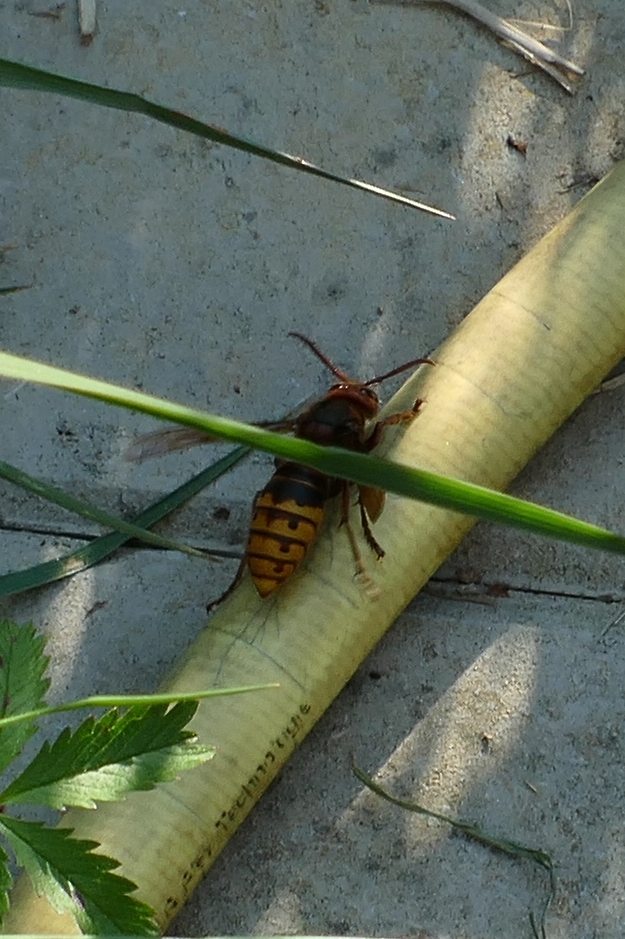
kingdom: Animalia
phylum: Arthropoda
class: Insecta
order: Hymenoptera
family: Vespidae
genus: Vespa
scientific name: Vespa crabro
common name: Hornet
